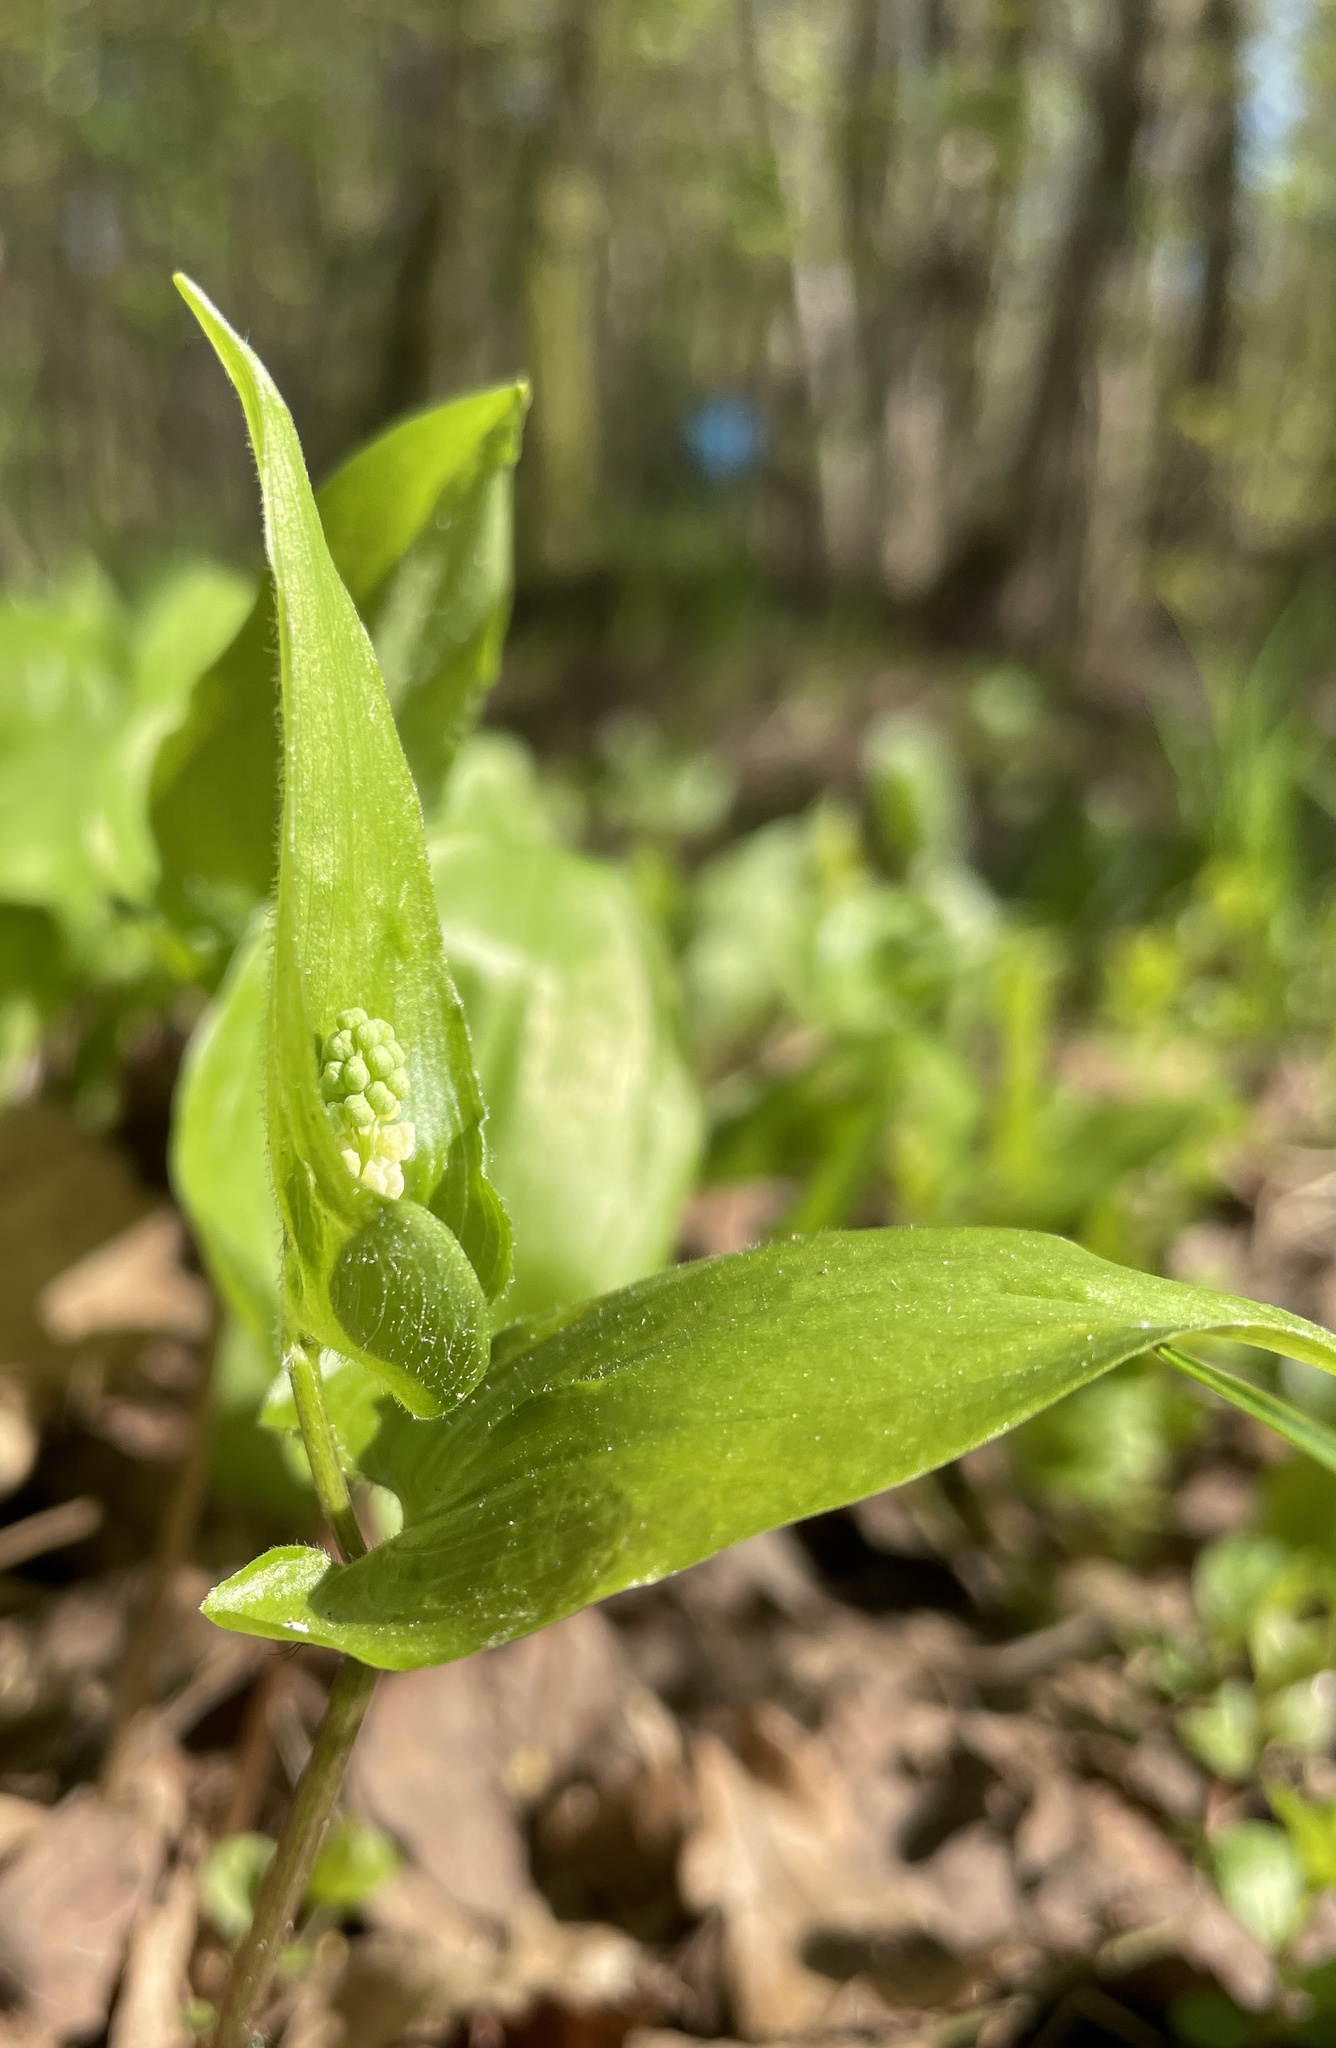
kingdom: Plantae
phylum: Tracheophyta
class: Liliopsida
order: Asparagales
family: Asparagaceae
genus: Maianthemum
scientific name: Maianthemum bifolium
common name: May lily
